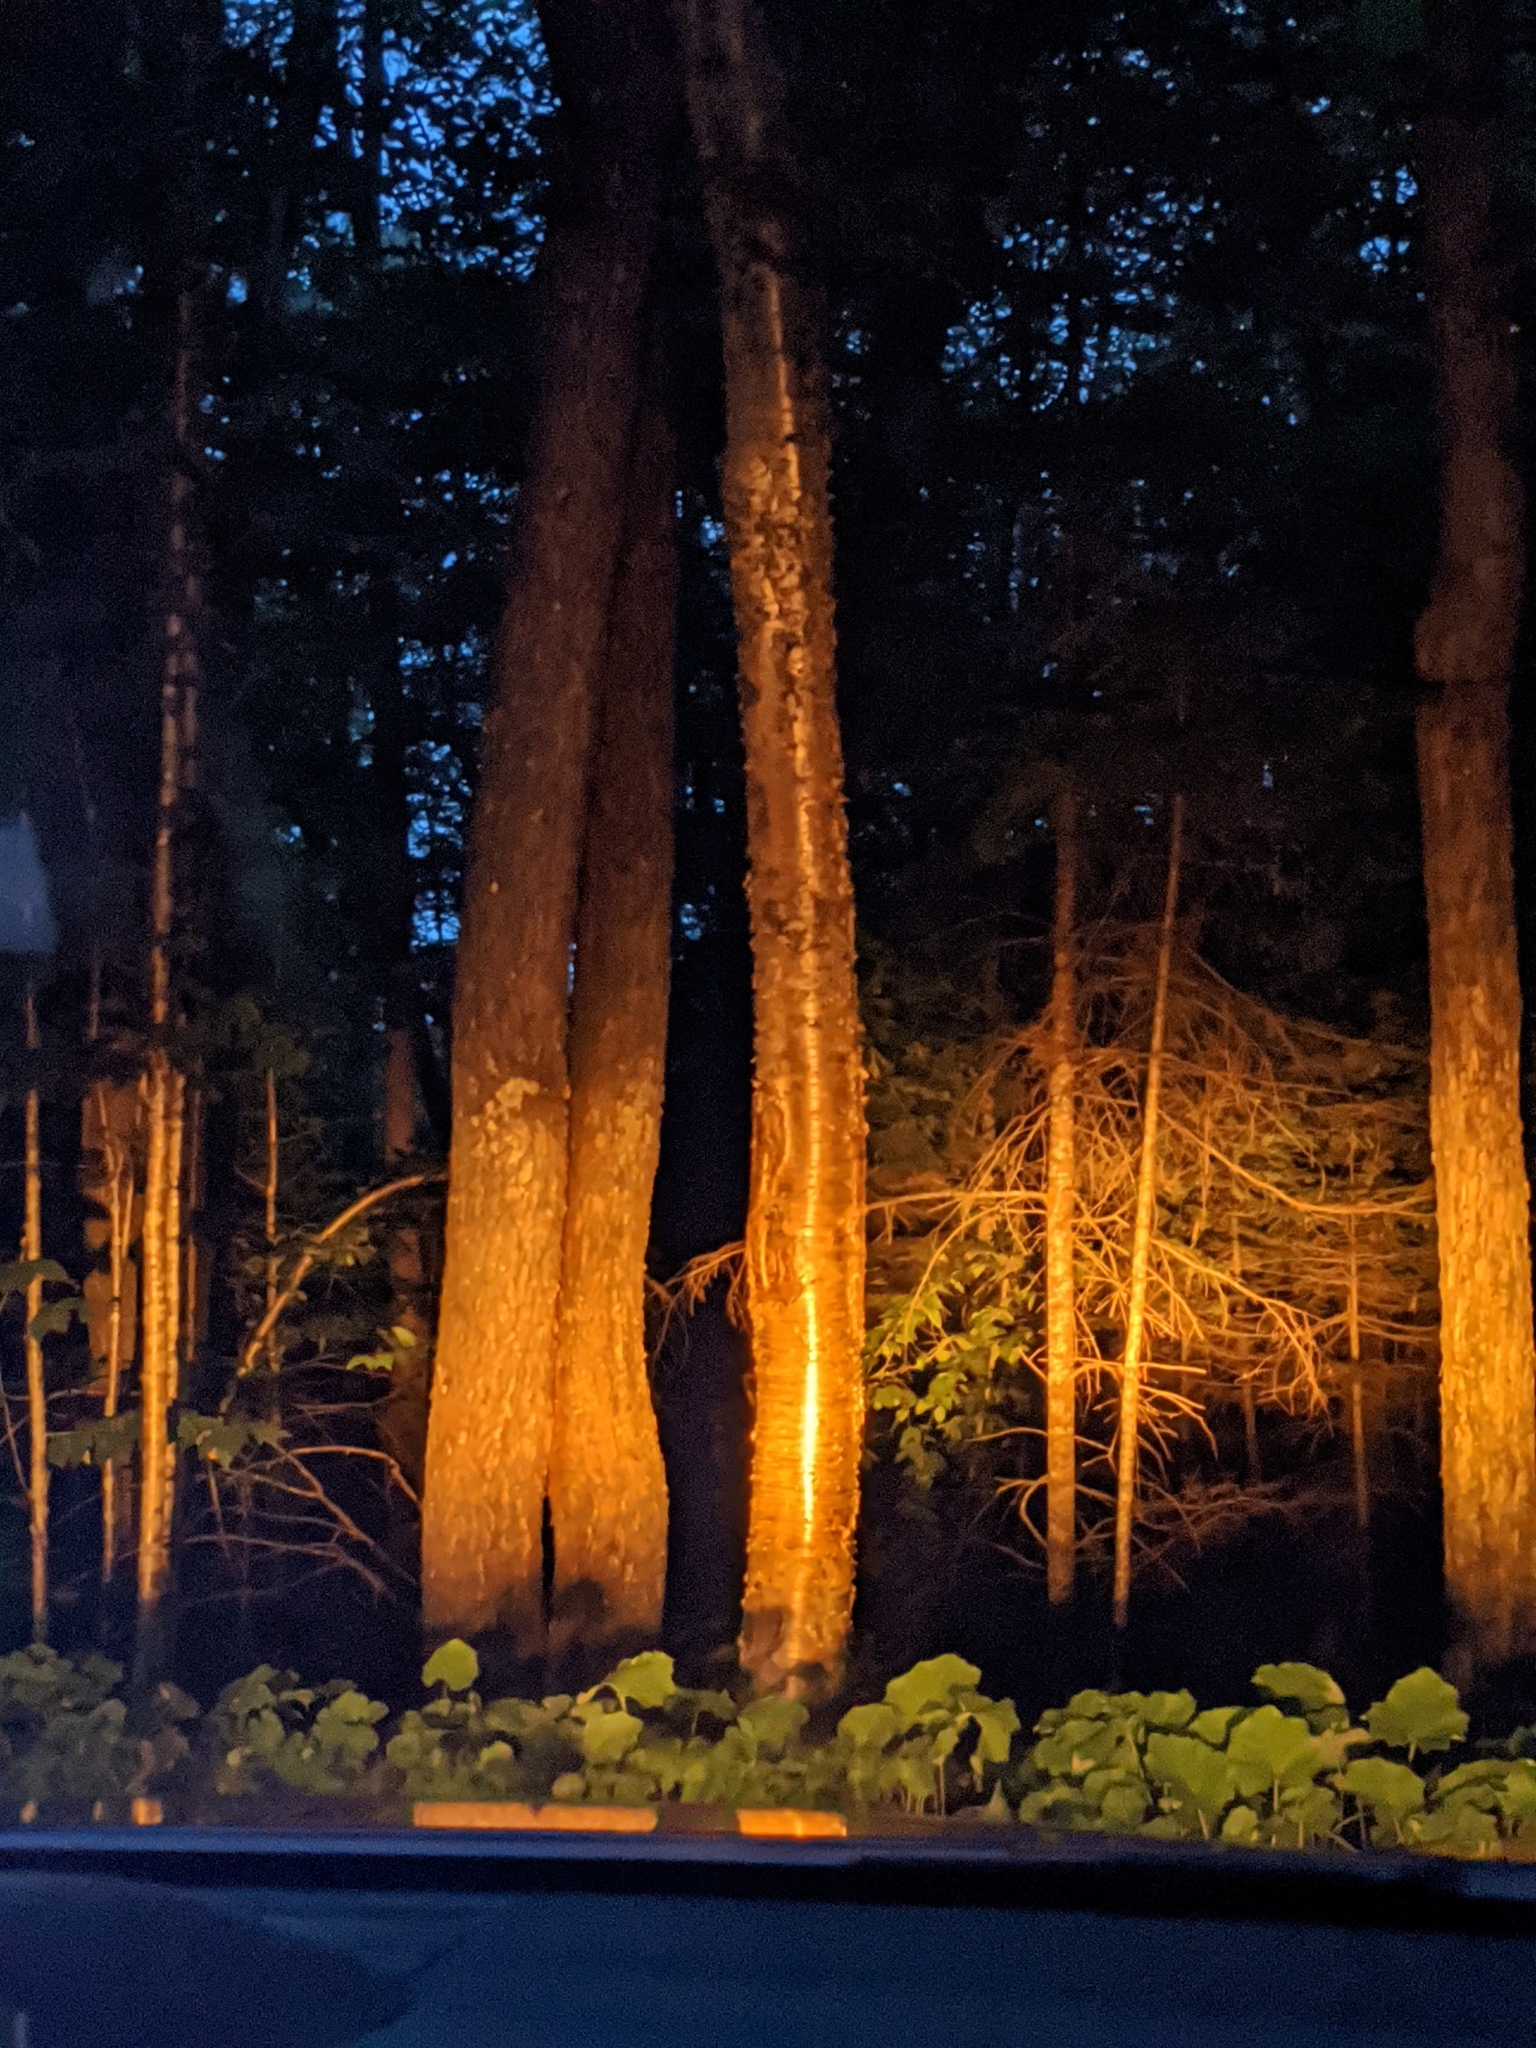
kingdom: Plantae
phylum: Tracheophyta
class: Magnoliopsida
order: Fagales
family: Betulaceae
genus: Betula
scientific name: Betula alleghaniensis
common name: Yellow birch
